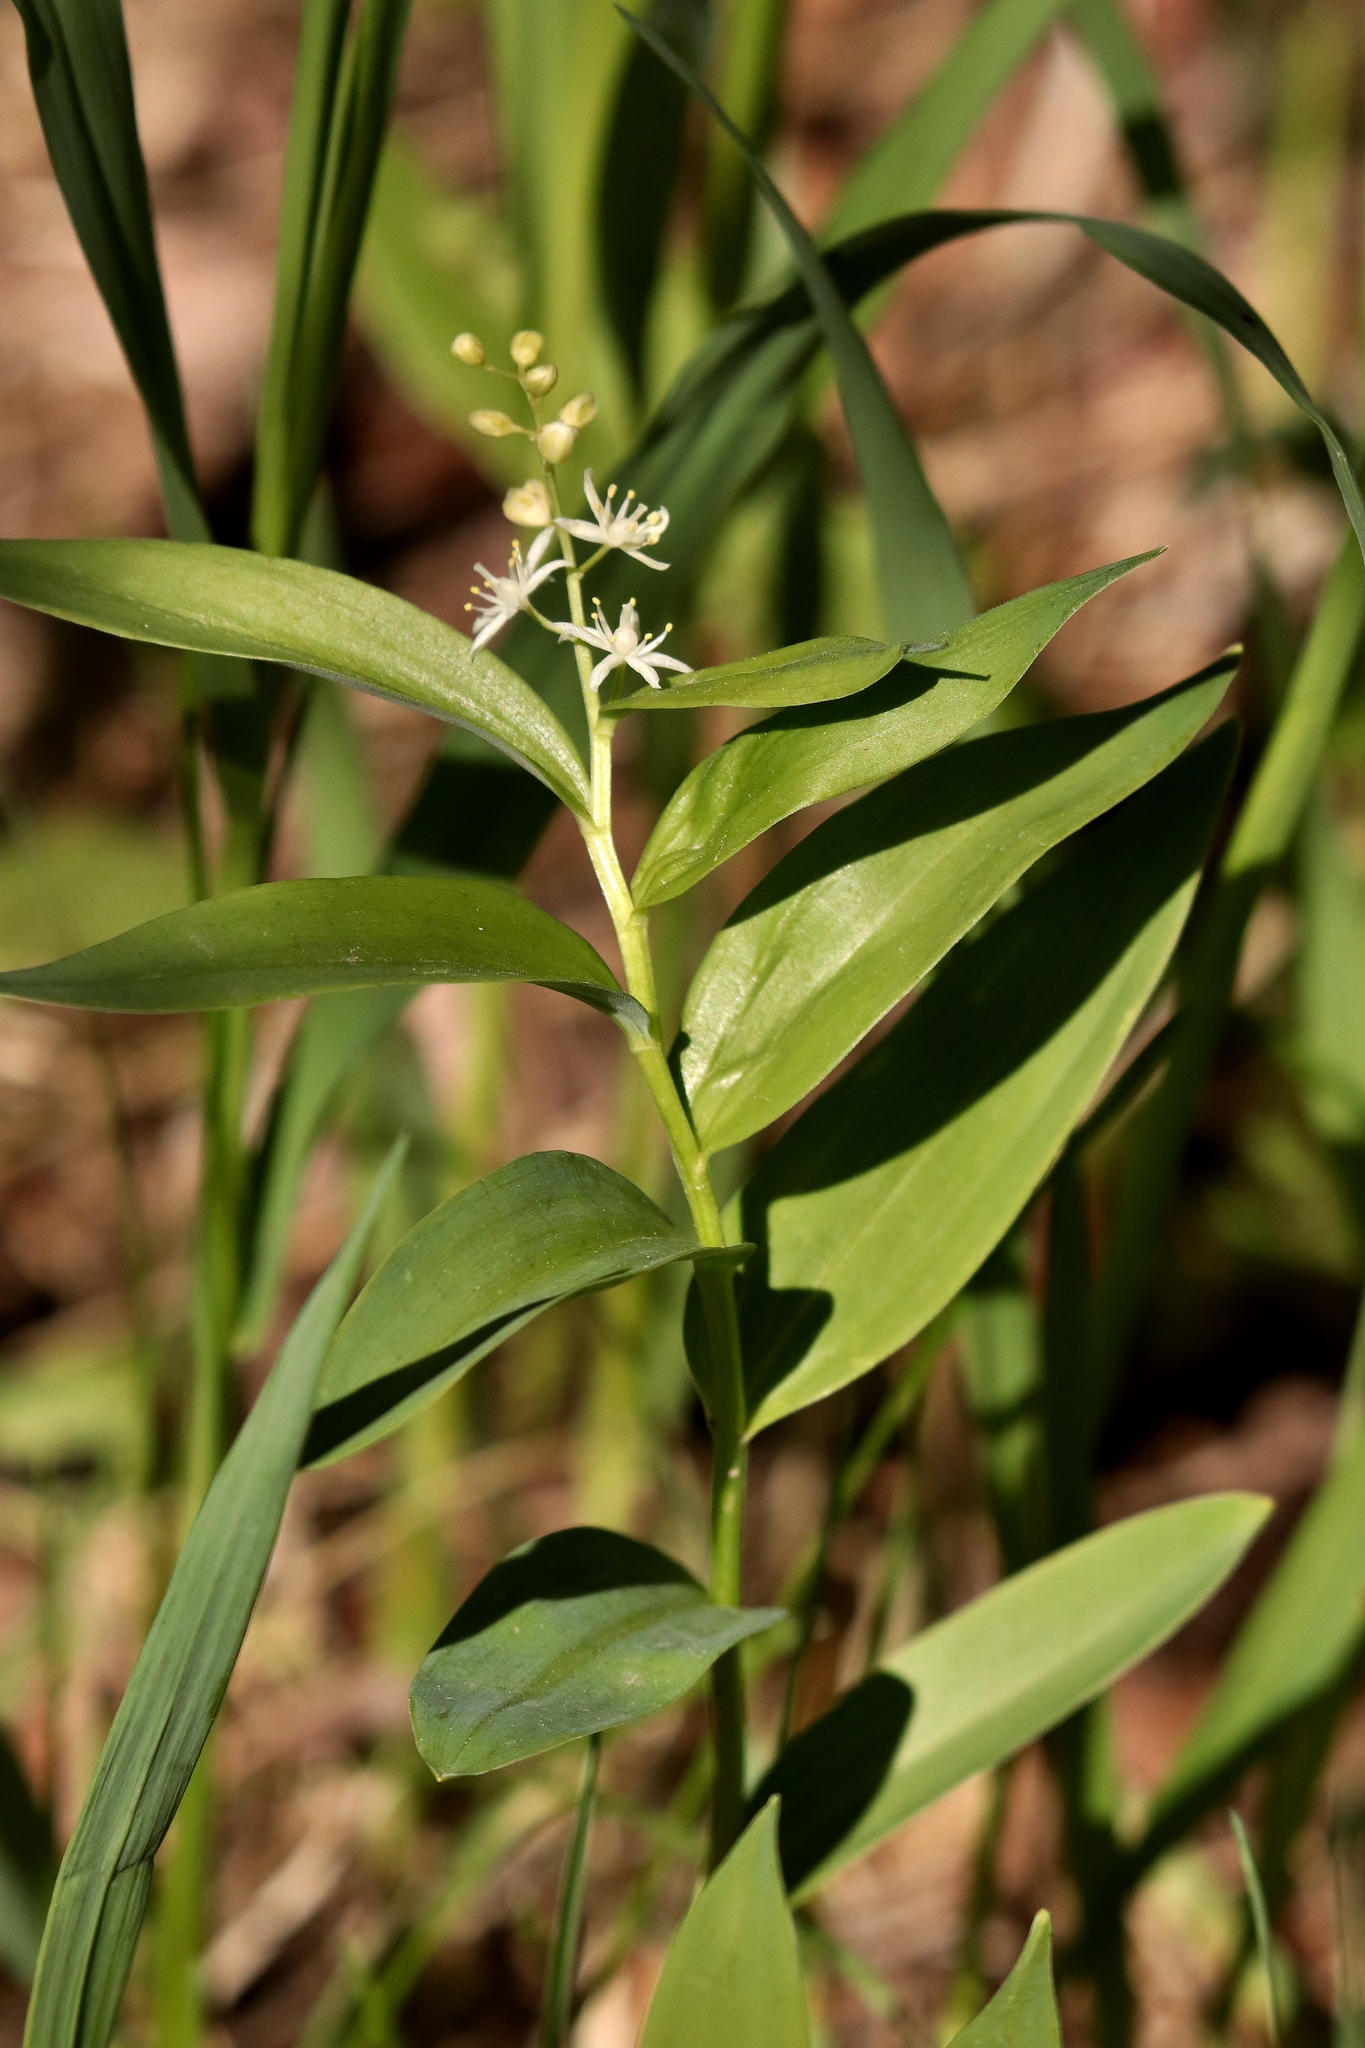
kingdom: Plantae
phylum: Tracheophyta
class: Liliopsida
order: Asparagales
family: Asparagaceae
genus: Maianthemum
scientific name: Maianthemum stellatum
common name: Little false solomon's seal
